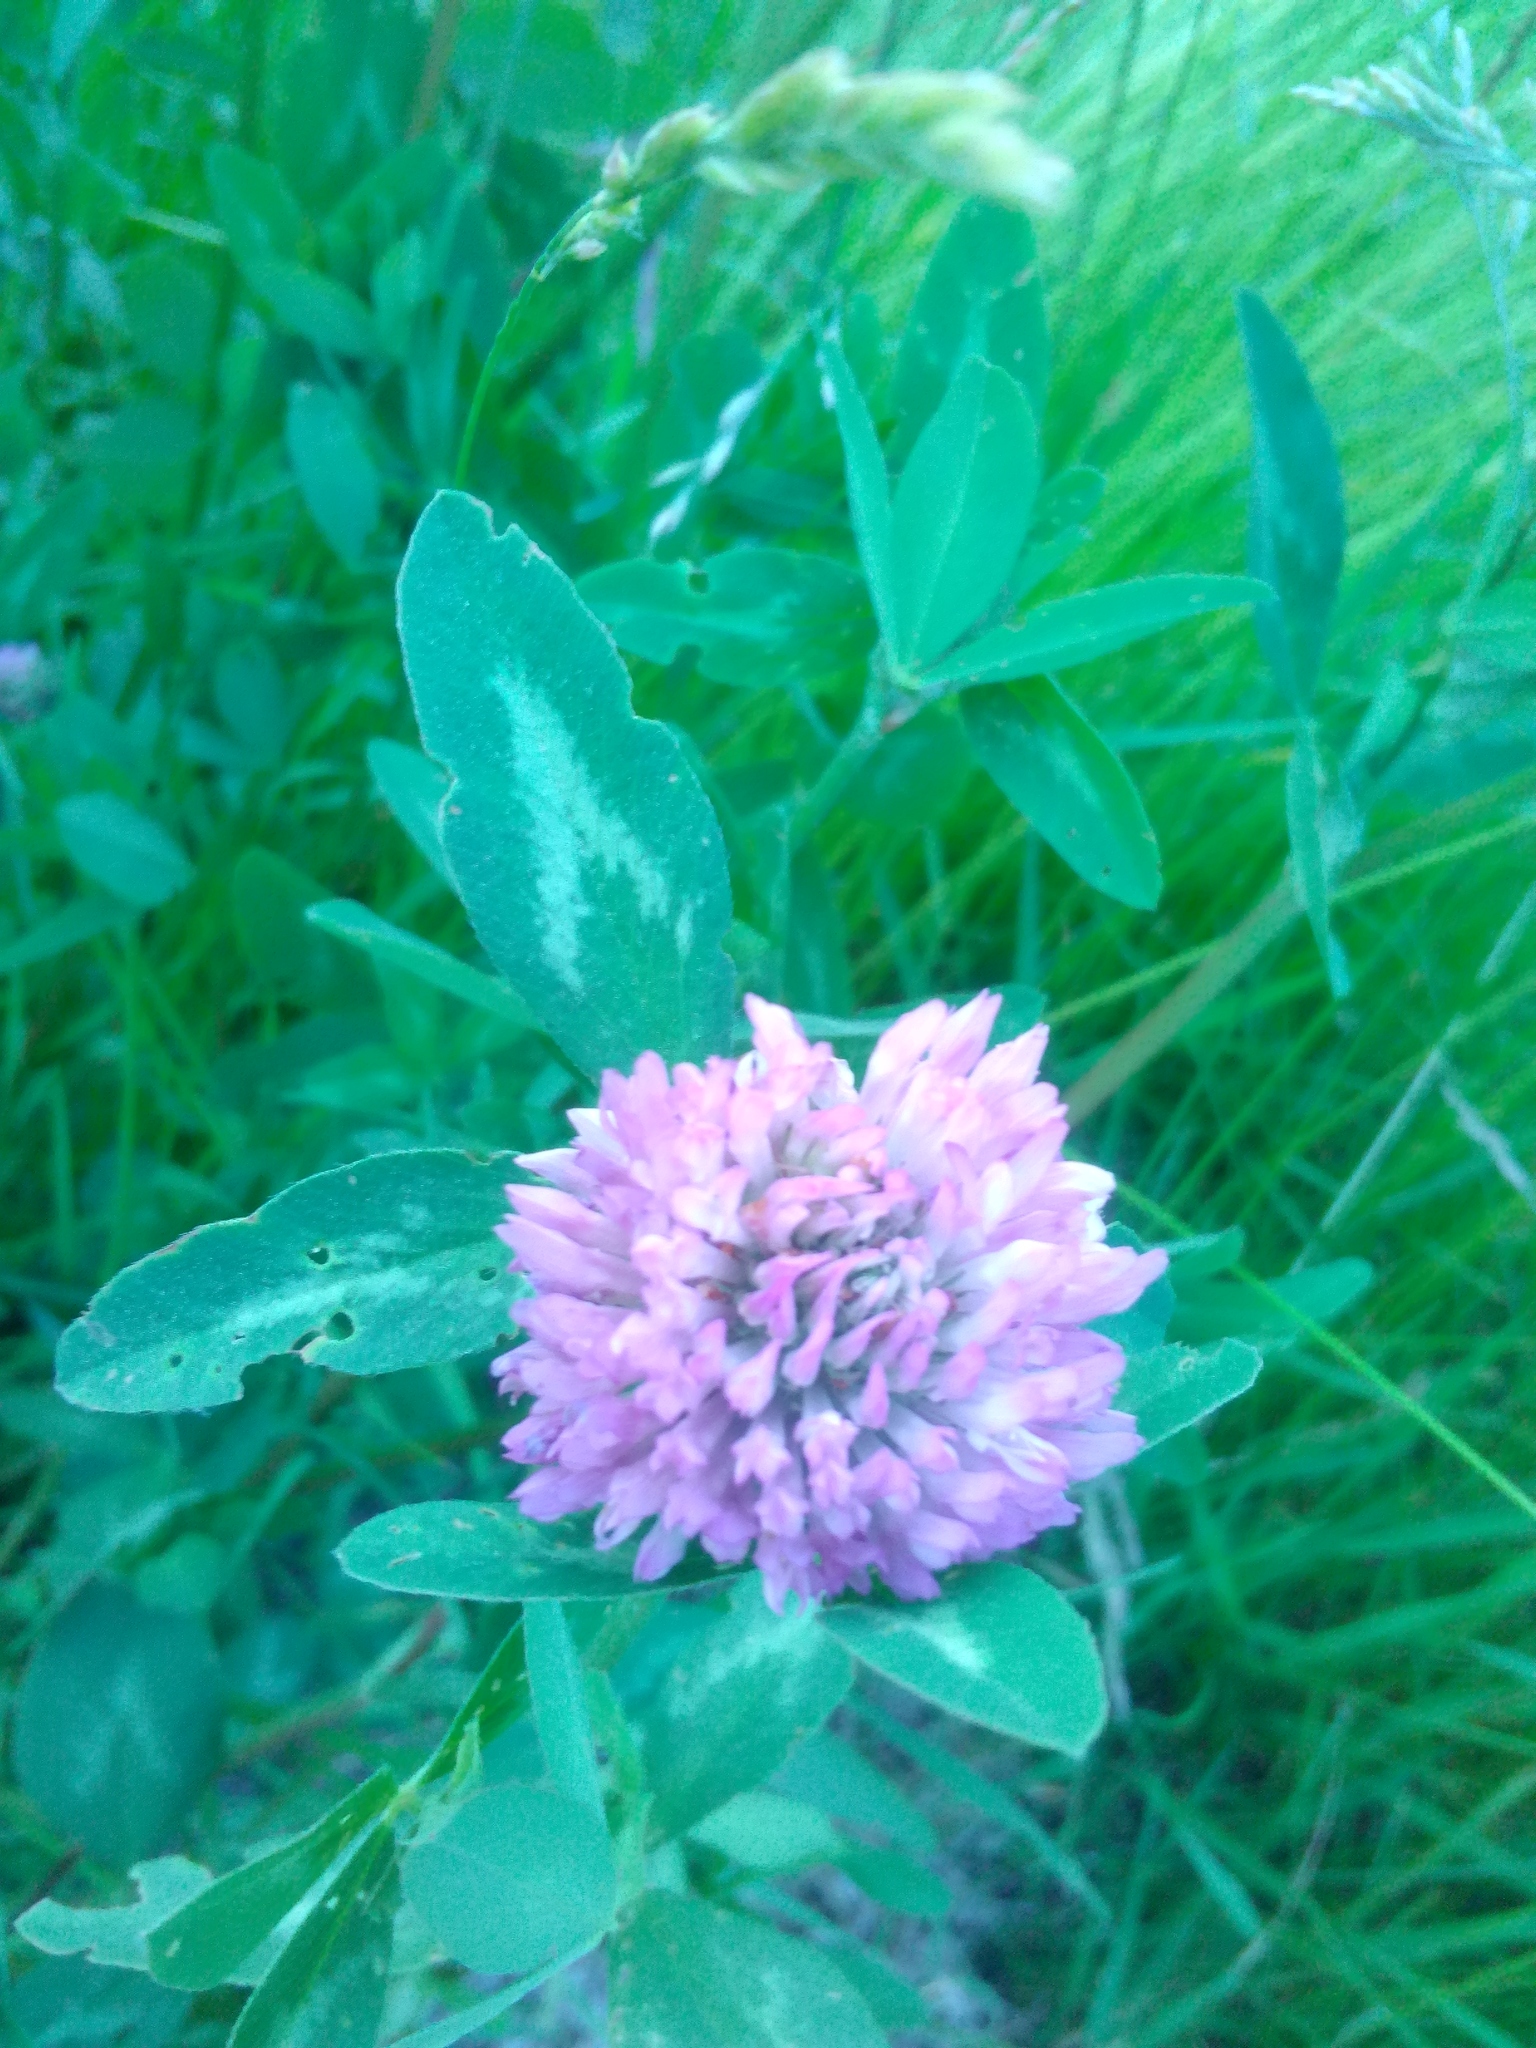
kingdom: Plantae
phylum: Tracheophyta
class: Magnoliopsida
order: Fabales
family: Fabaceae
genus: Trifolium
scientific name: Trifolium pratense
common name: Red clover
